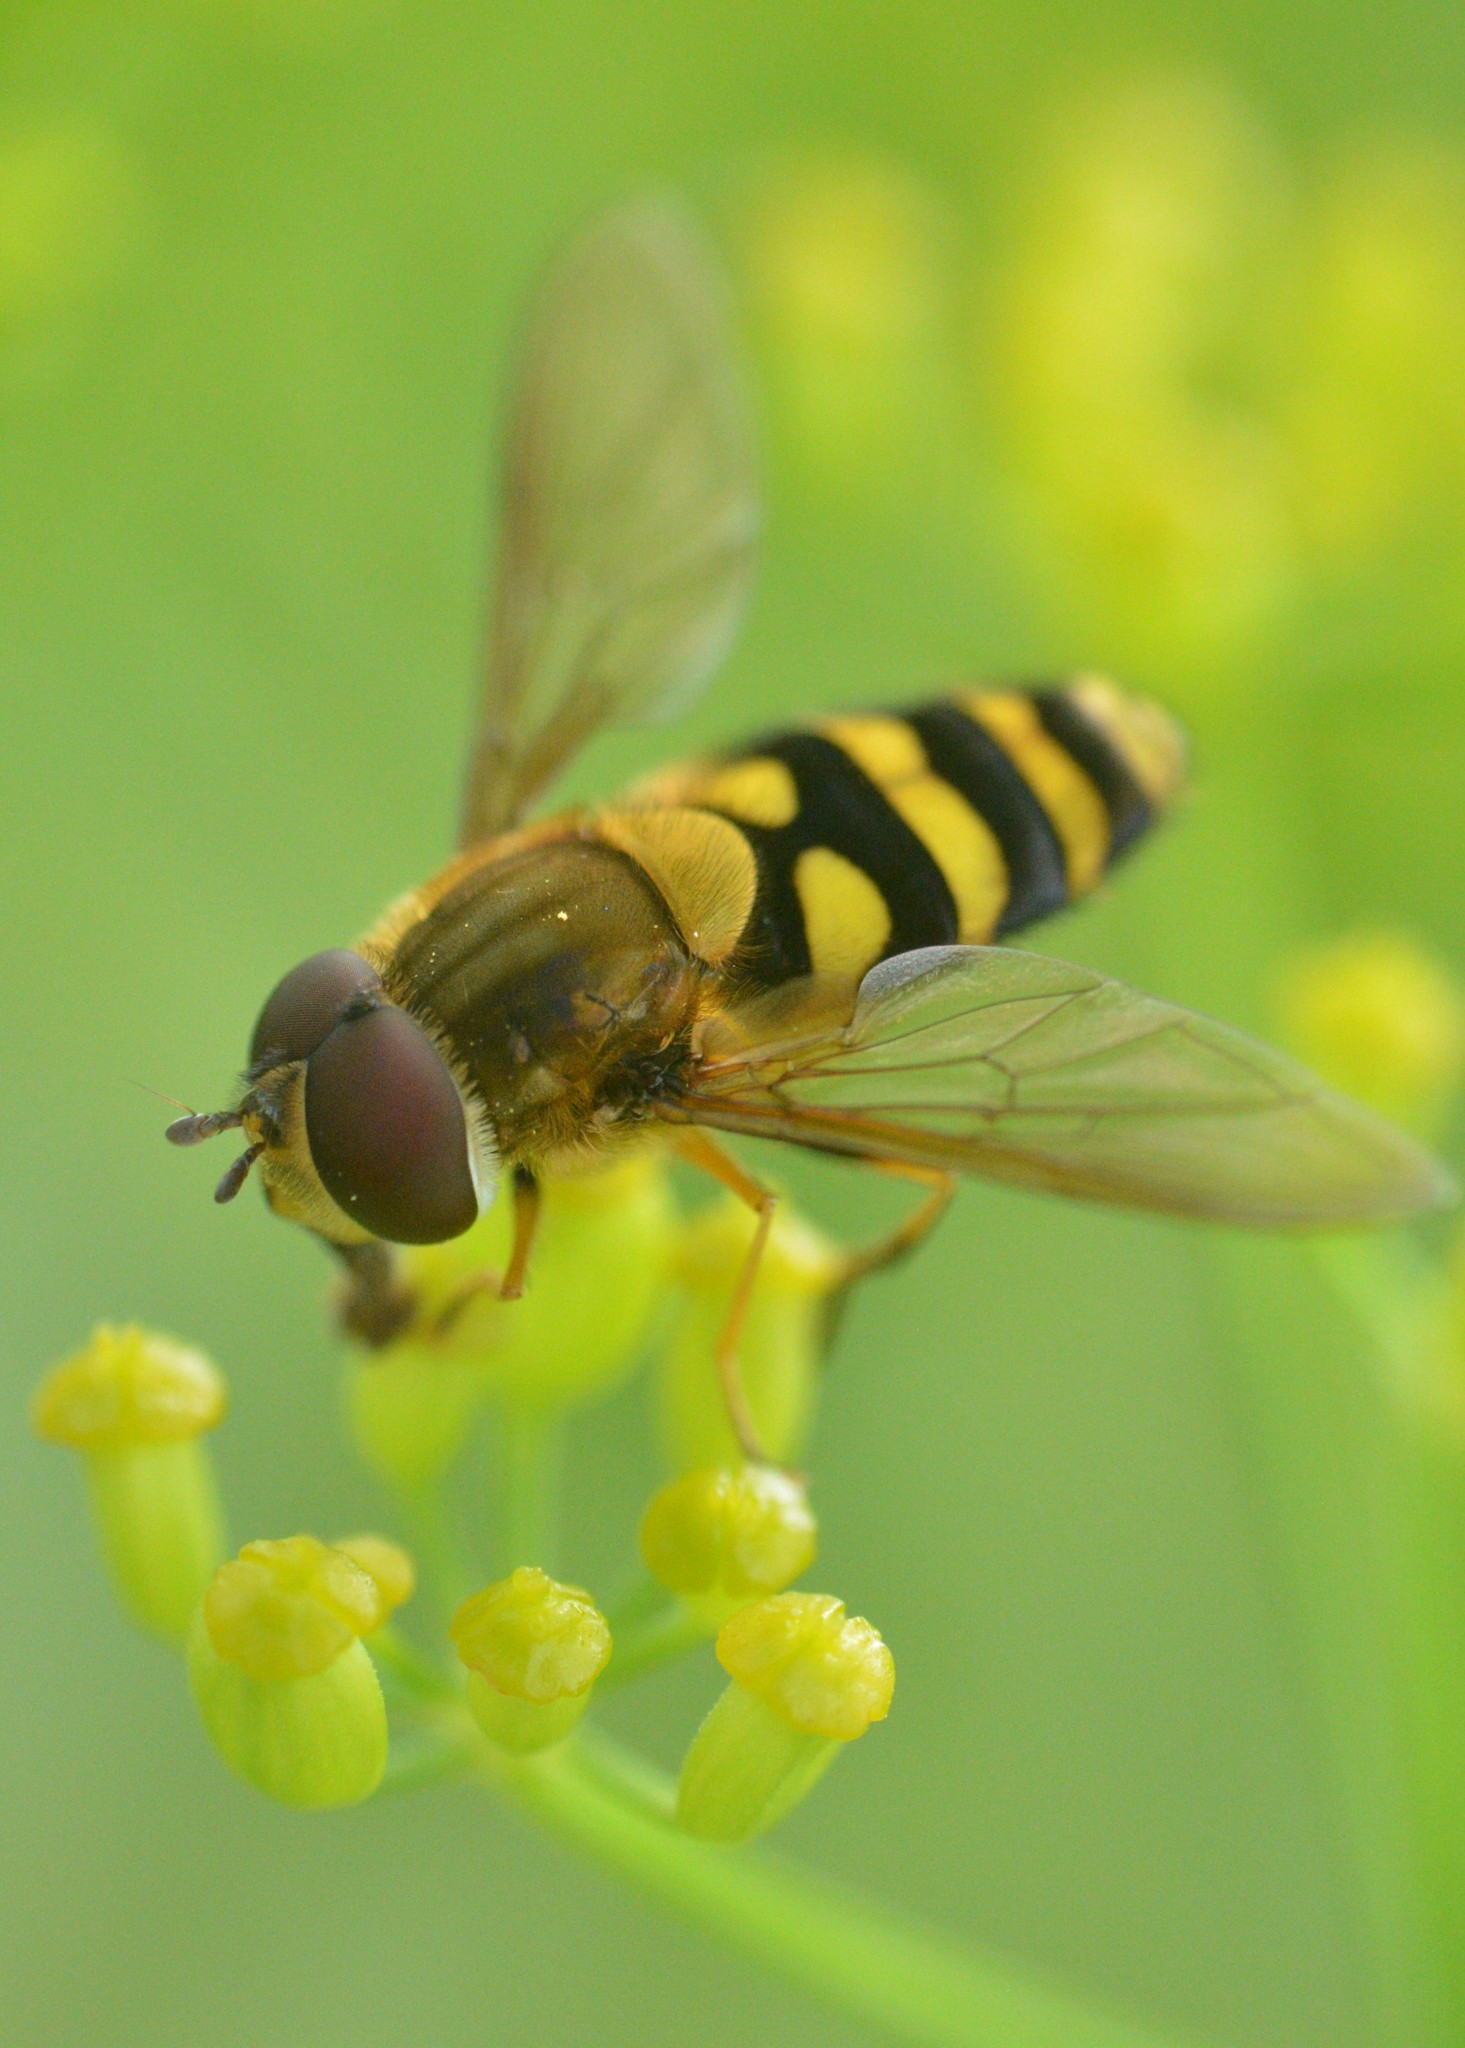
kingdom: Animalia
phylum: Arthropoda
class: Insecta
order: Diptera
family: Syrphidae
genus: Syrphus
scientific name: Syrphus
